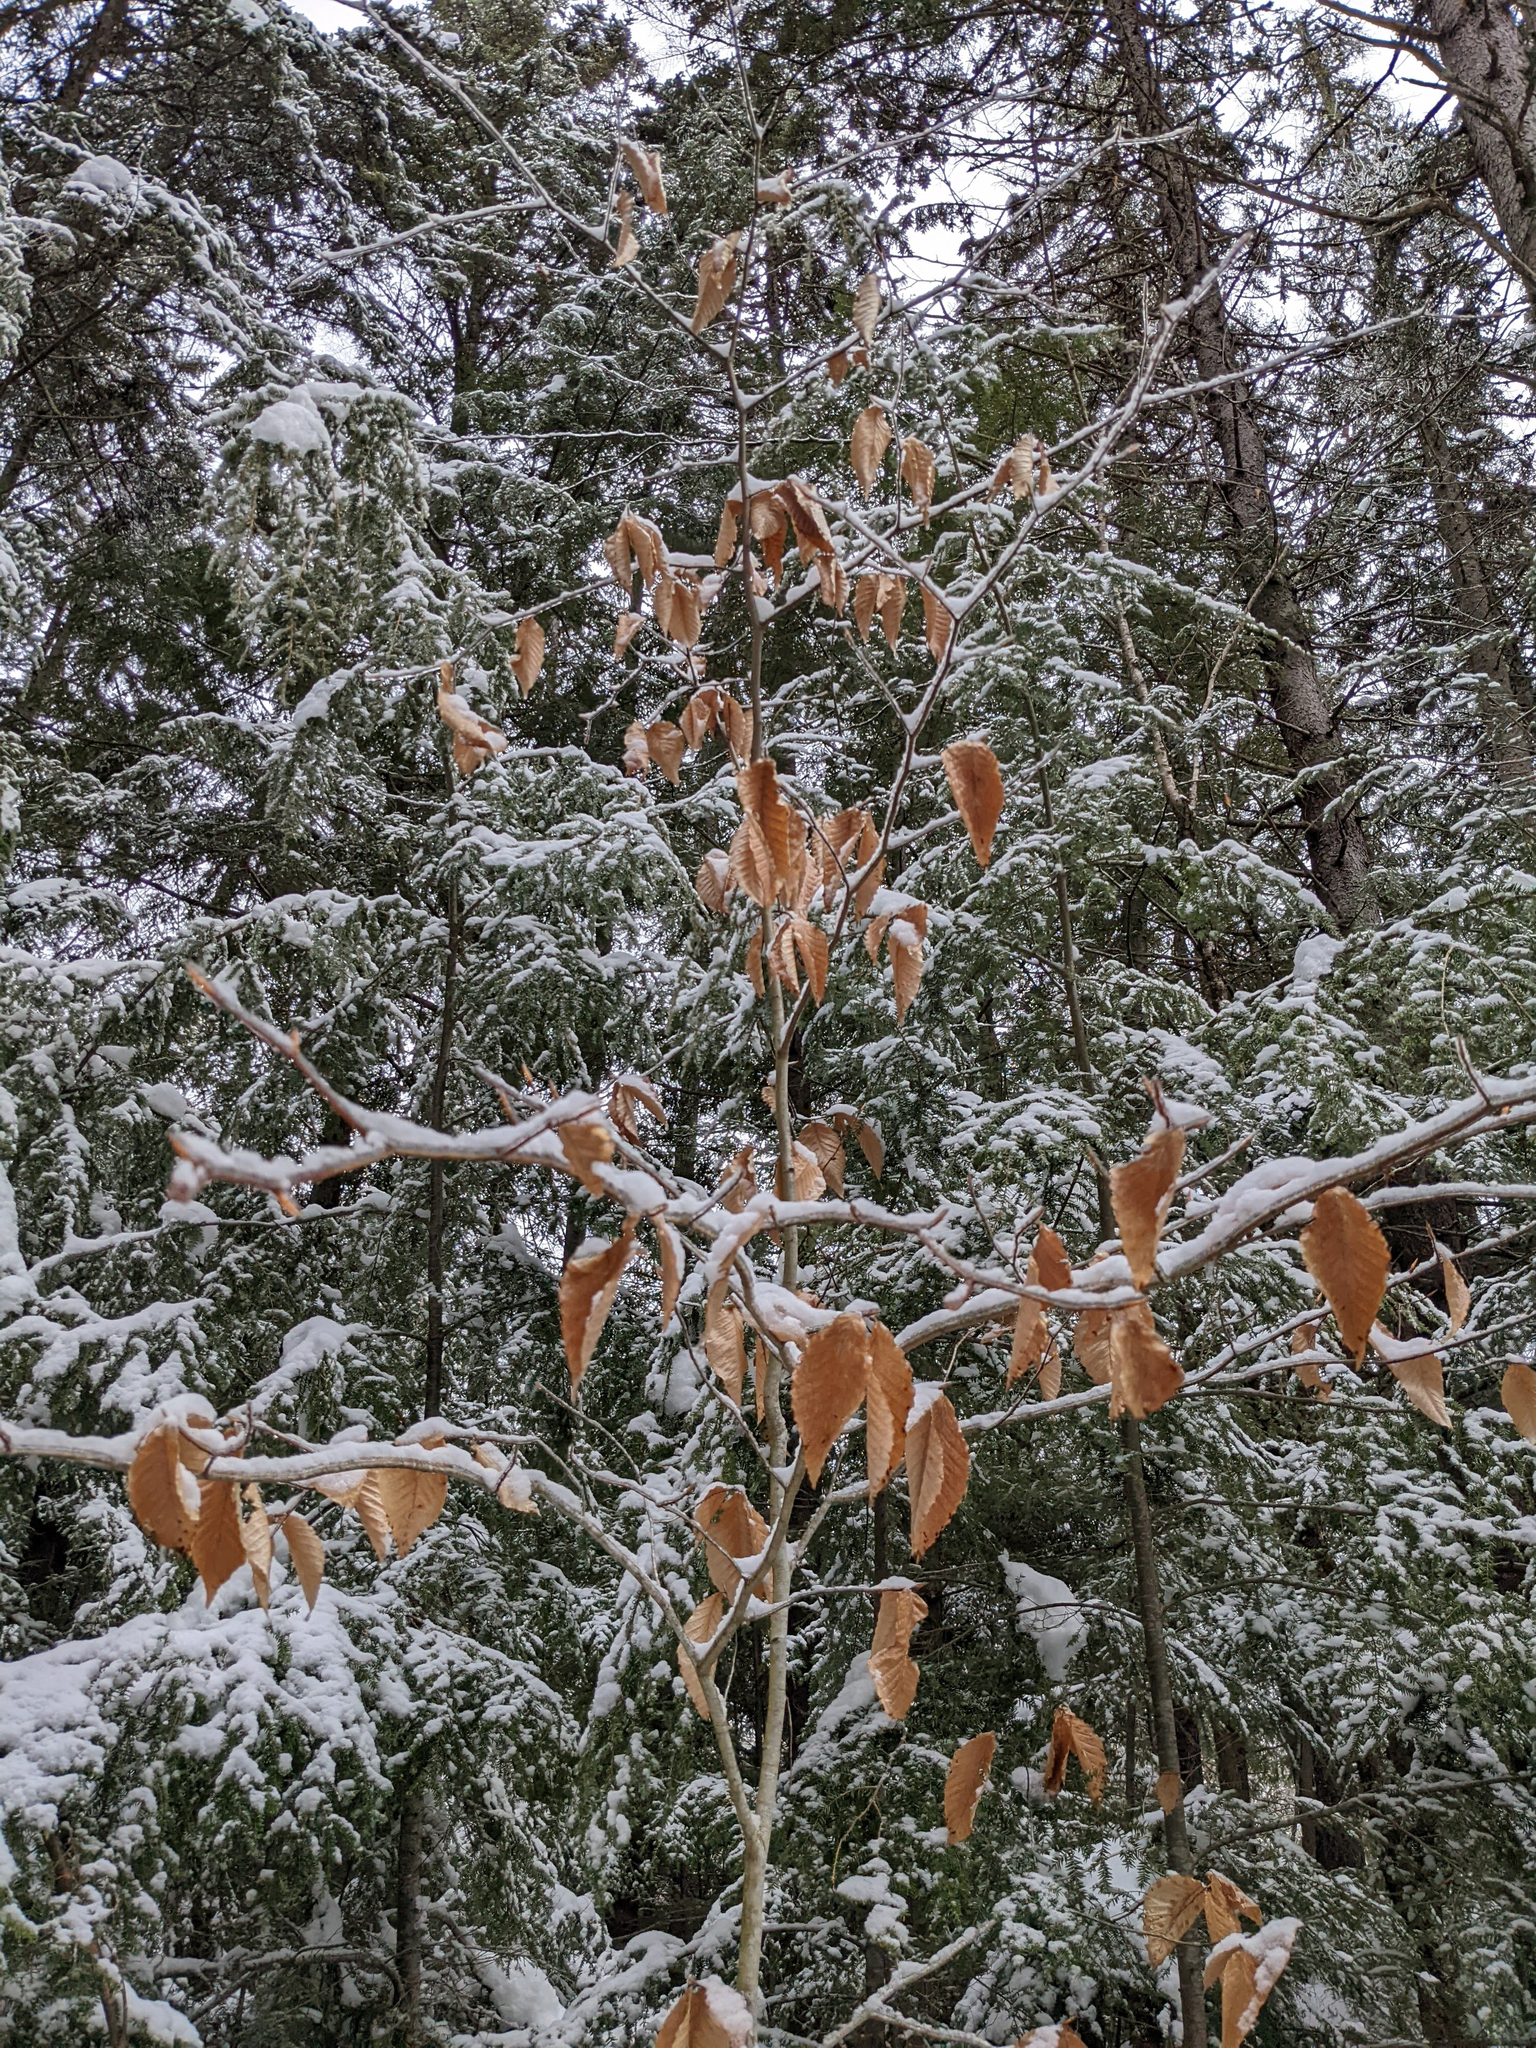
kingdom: Plantae
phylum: Tracheophyta
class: Magnoliopsida
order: Fagales
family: Fagaceae
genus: Fagus
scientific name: Fagus grandifolia
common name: American beech
